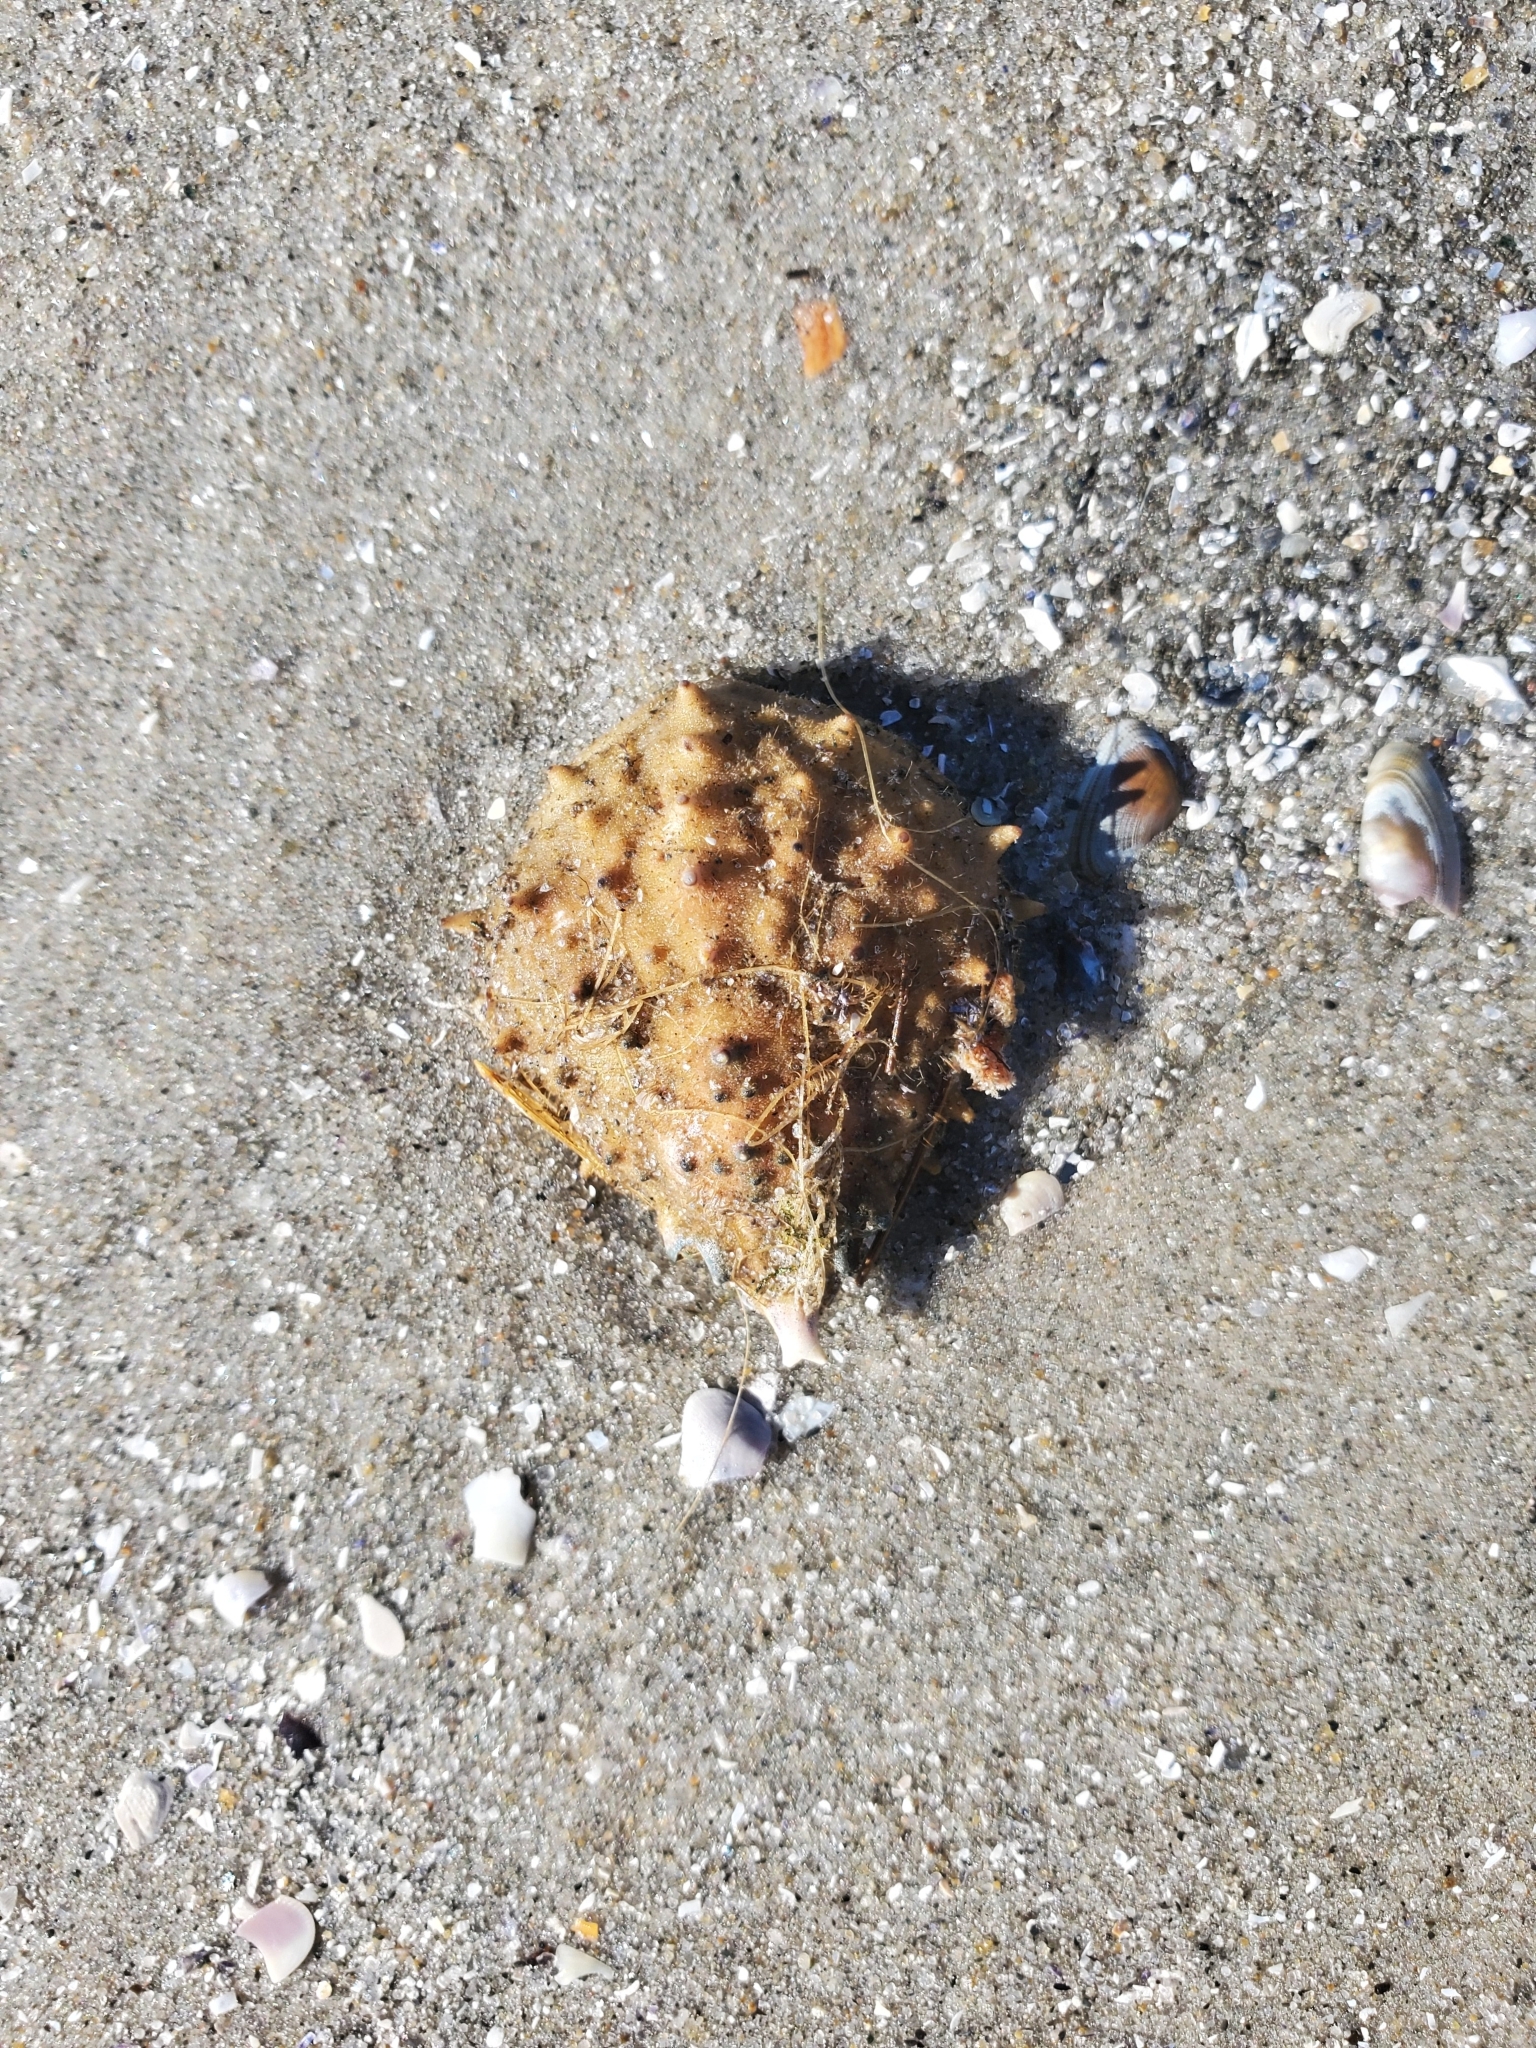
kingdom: Animalia
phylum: Arthropoda
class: Malacostraca
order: Decapoda
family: Epialtidae
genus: Libinia
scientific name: Libinia emarginata
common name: Common spider crab
